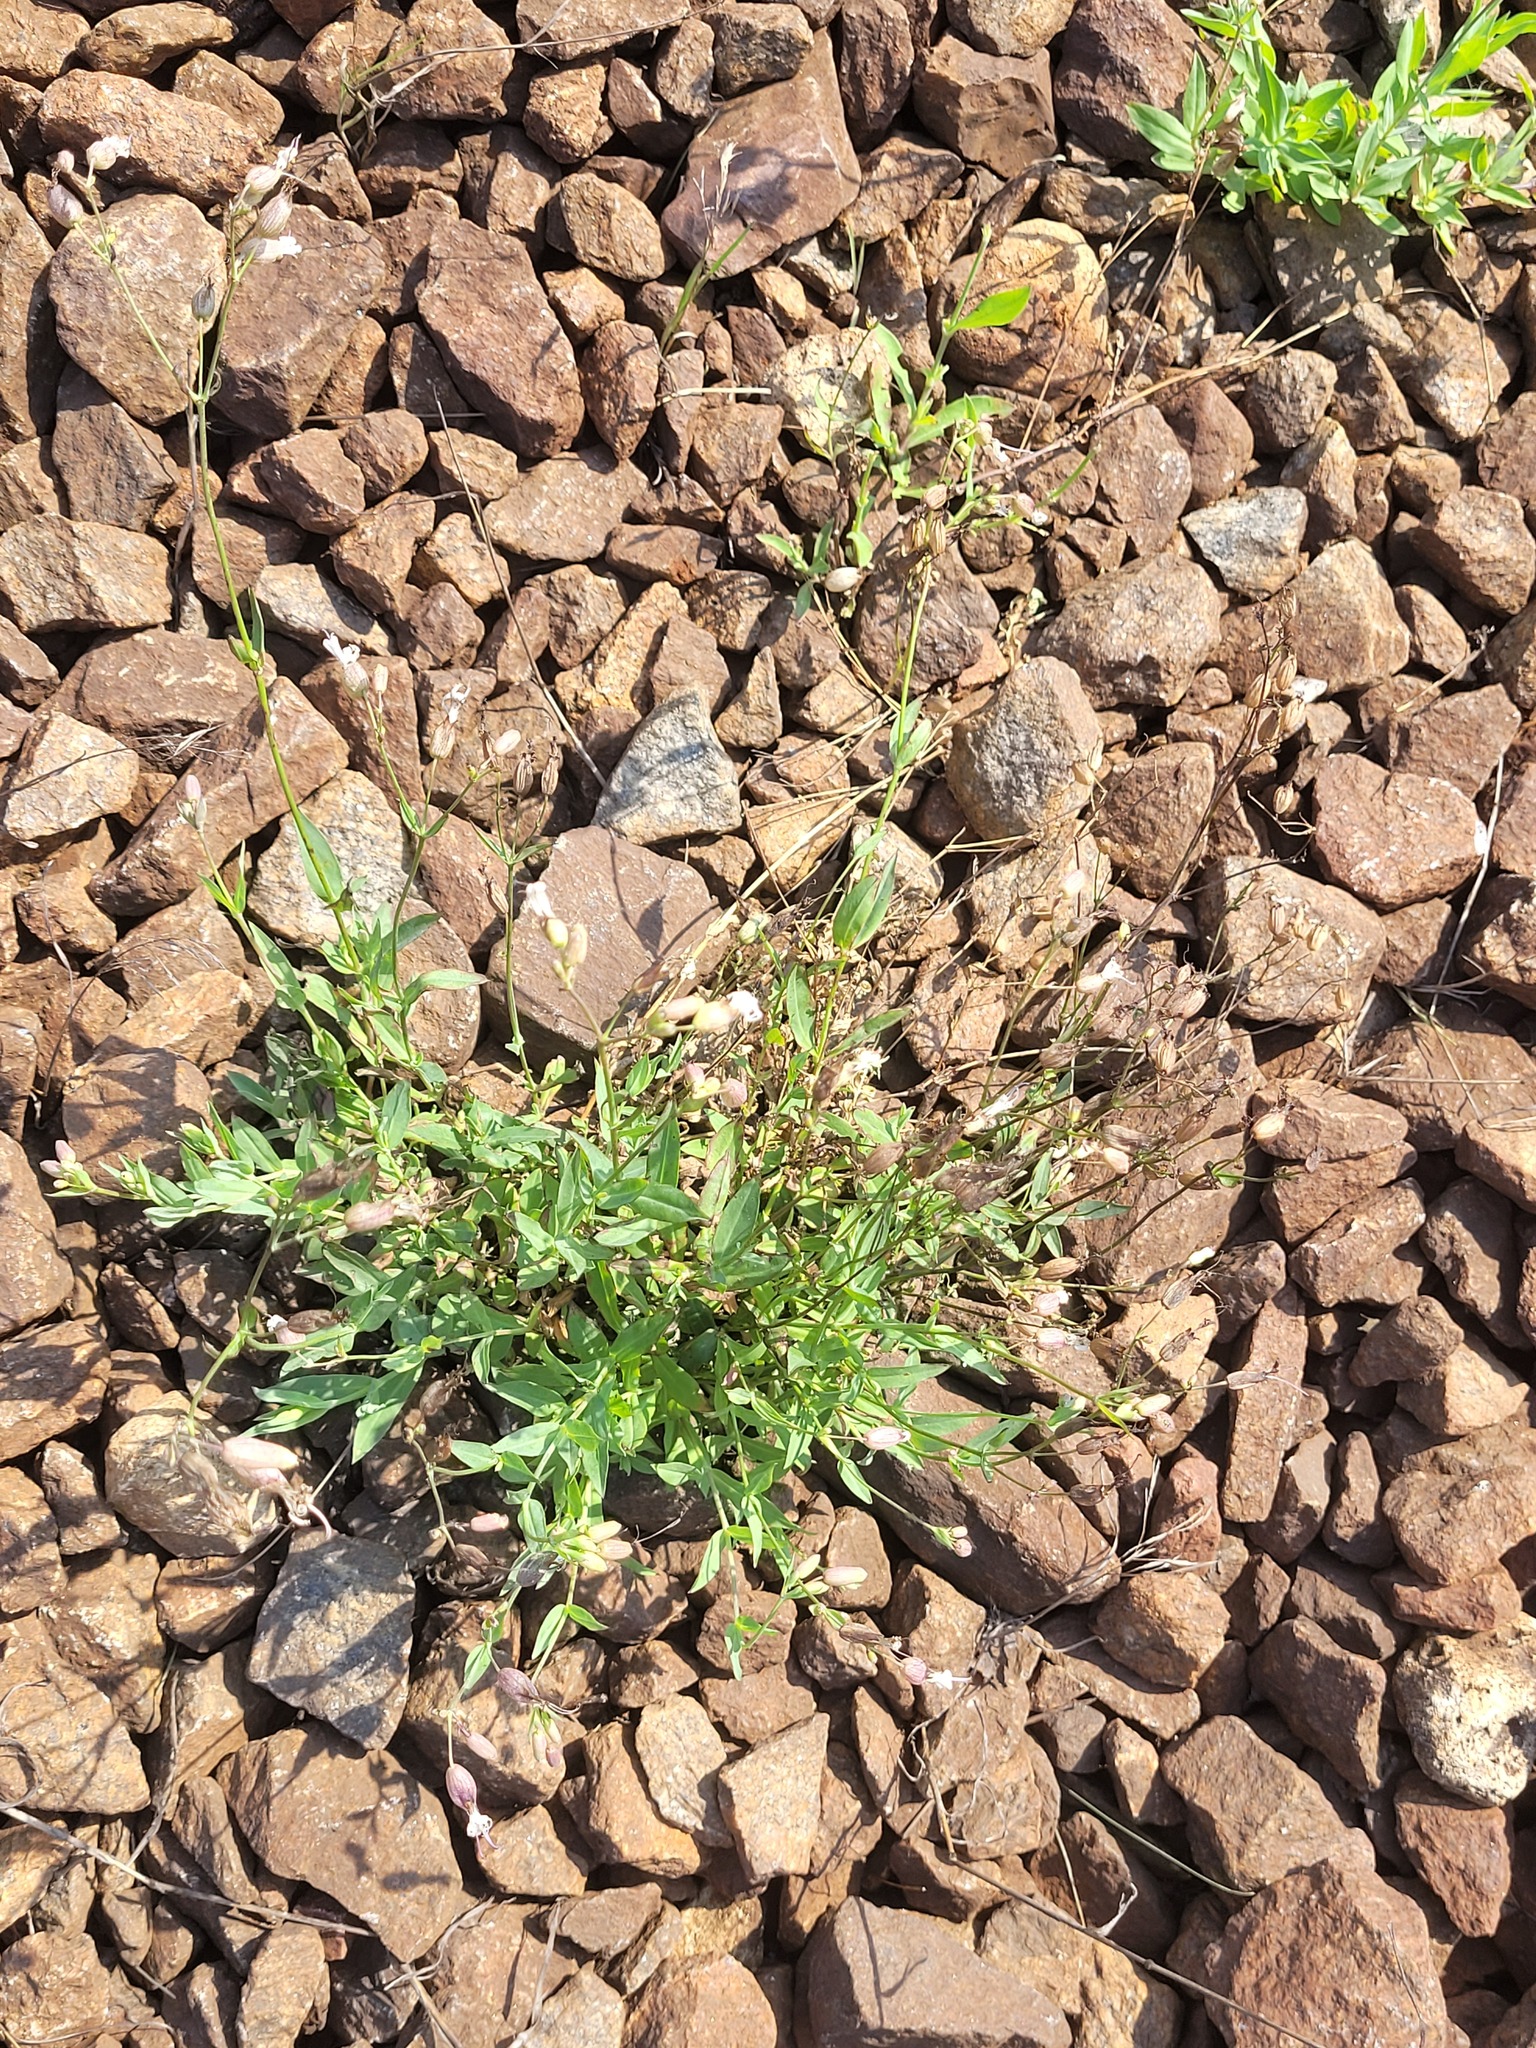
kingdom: Plantae
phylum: Tracheophyta
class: Magnoliopsida
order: Caryophyllales
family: Caryophyllaceae
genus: Silene
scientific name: Silene vulgaris
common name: Bladder campion
